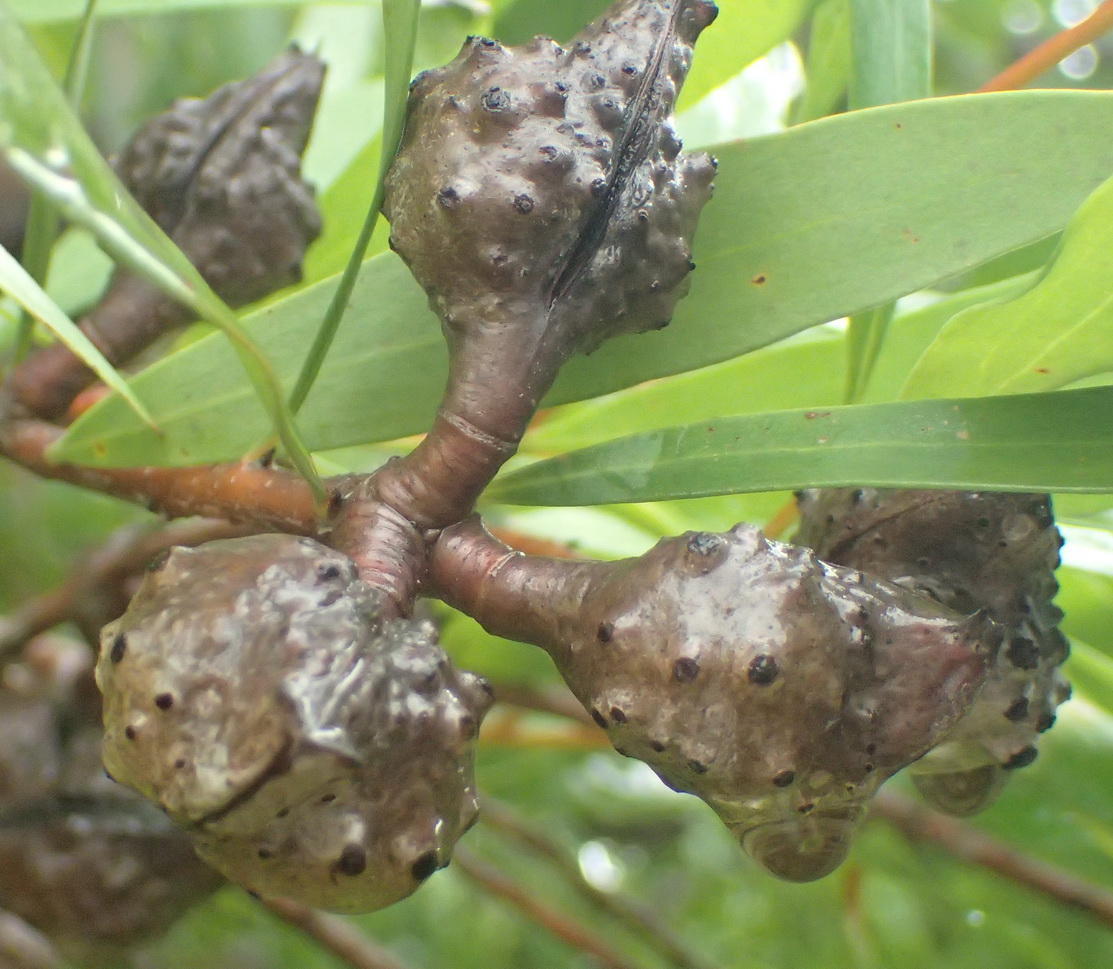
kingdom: Plantae
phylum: Tracheophyta
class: Magnoliopsida
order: Proteales
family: Proteaceae
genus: Hakea
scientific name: Hakea salicifolia
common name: Willow hakea
